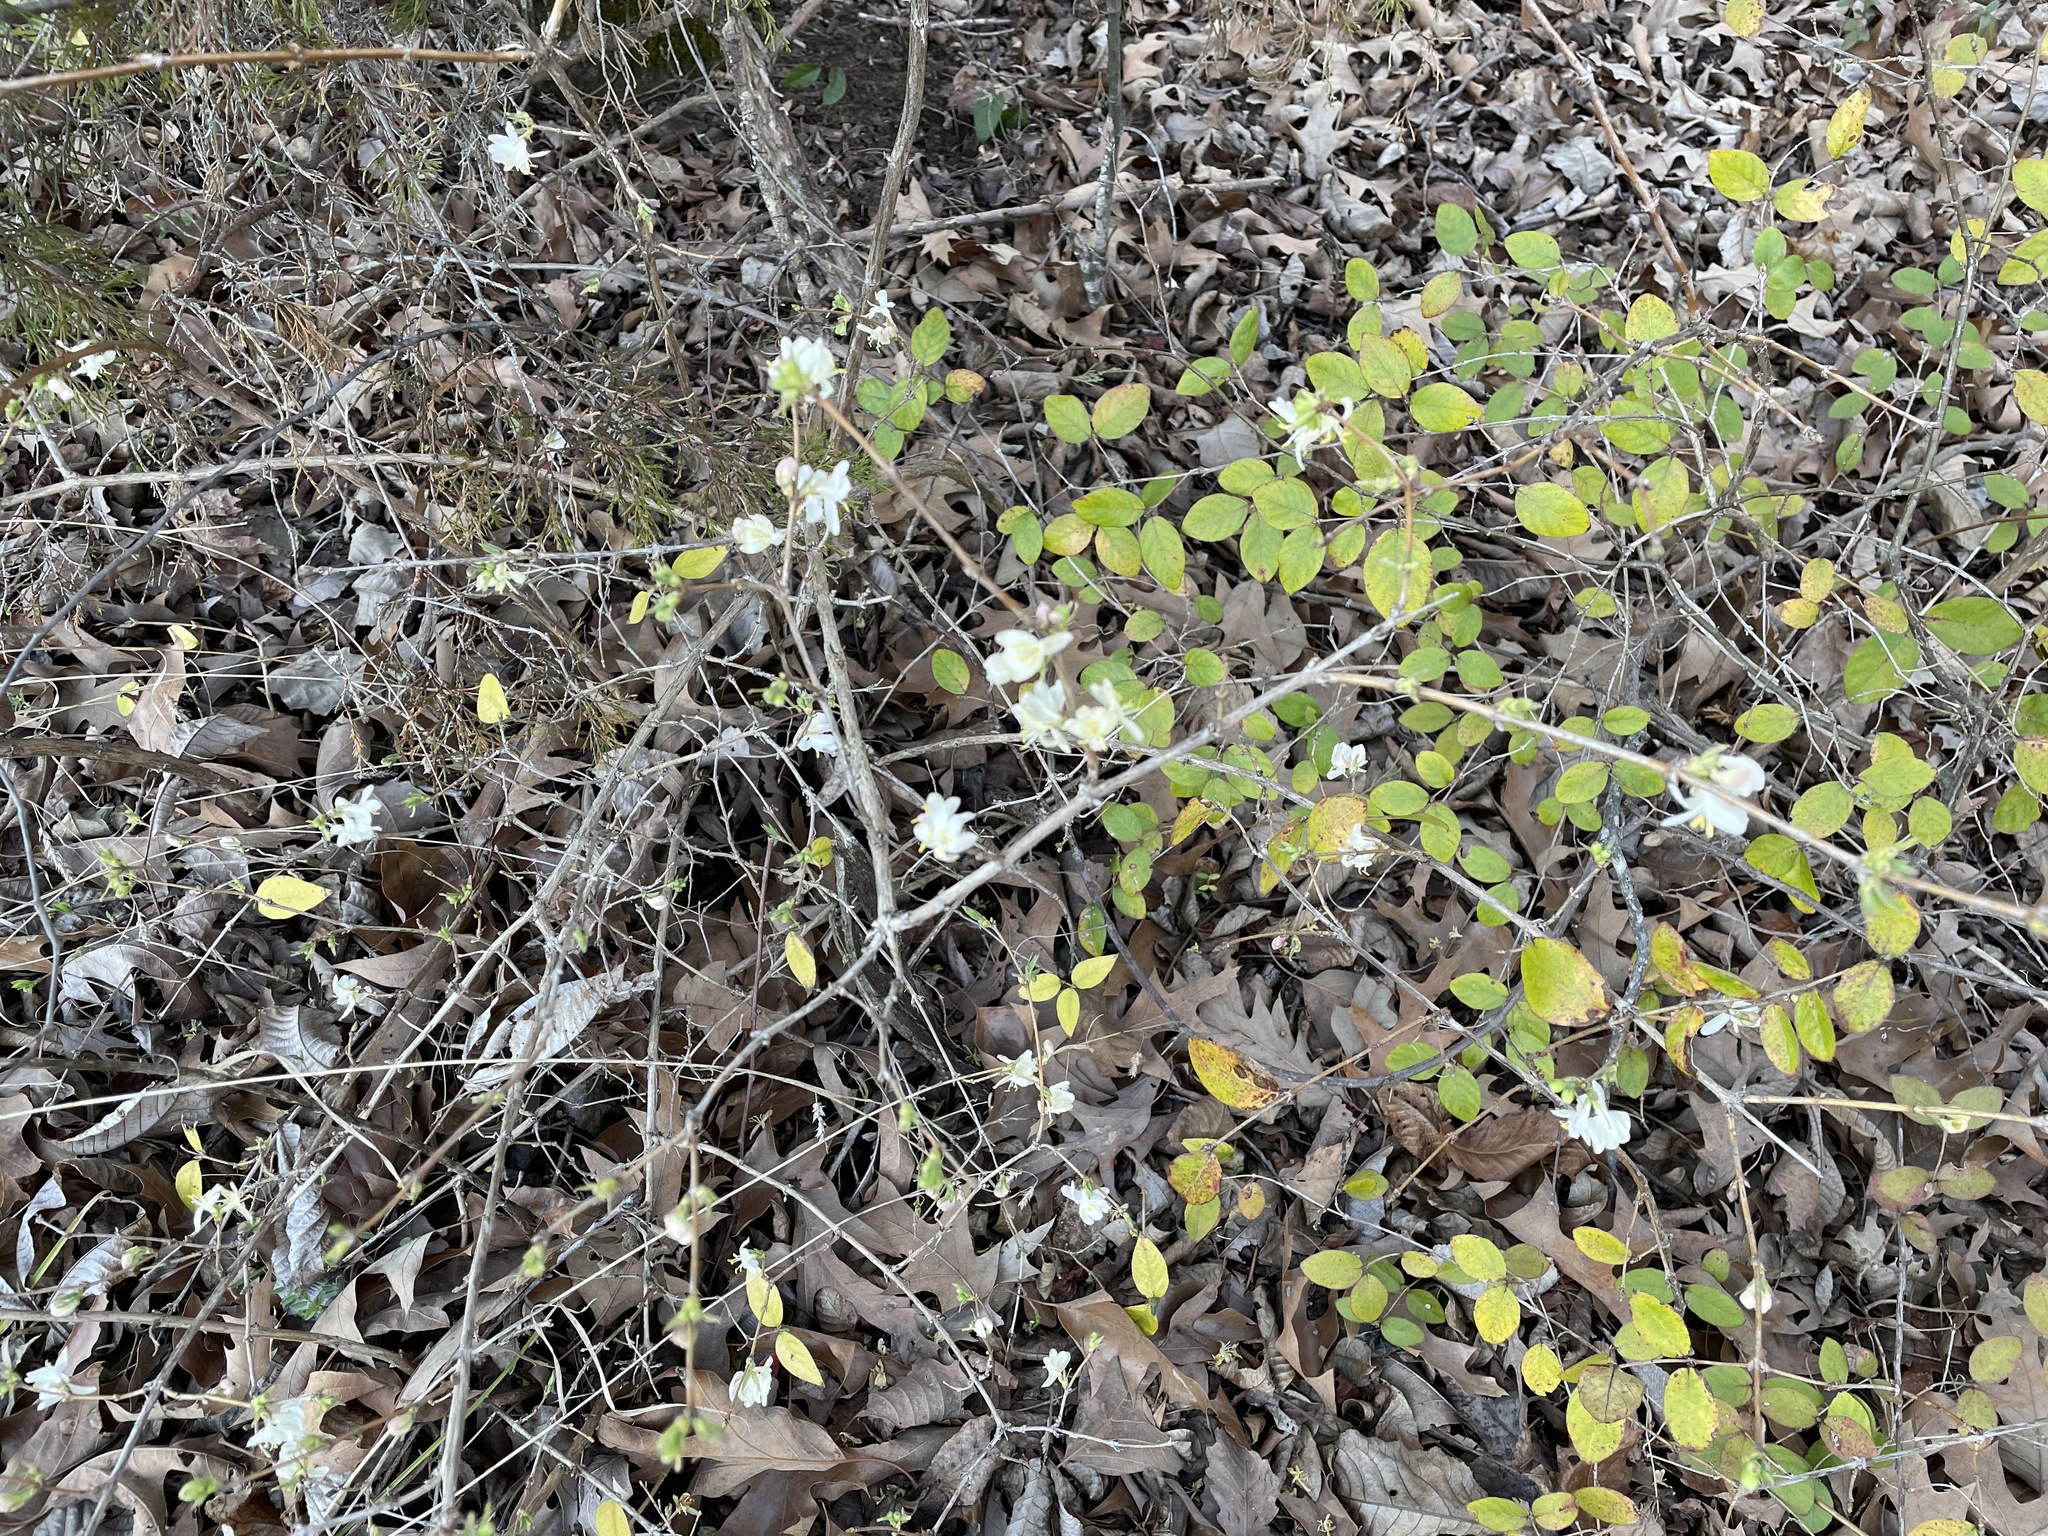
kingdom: Plantae
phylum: Tracheophyta
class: Magnoliopsida
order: Dipsacales
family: Caprifoliaceae
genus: Lonicera
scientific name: Lonicera fragrantissima
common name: Fragrant honeysuckle
